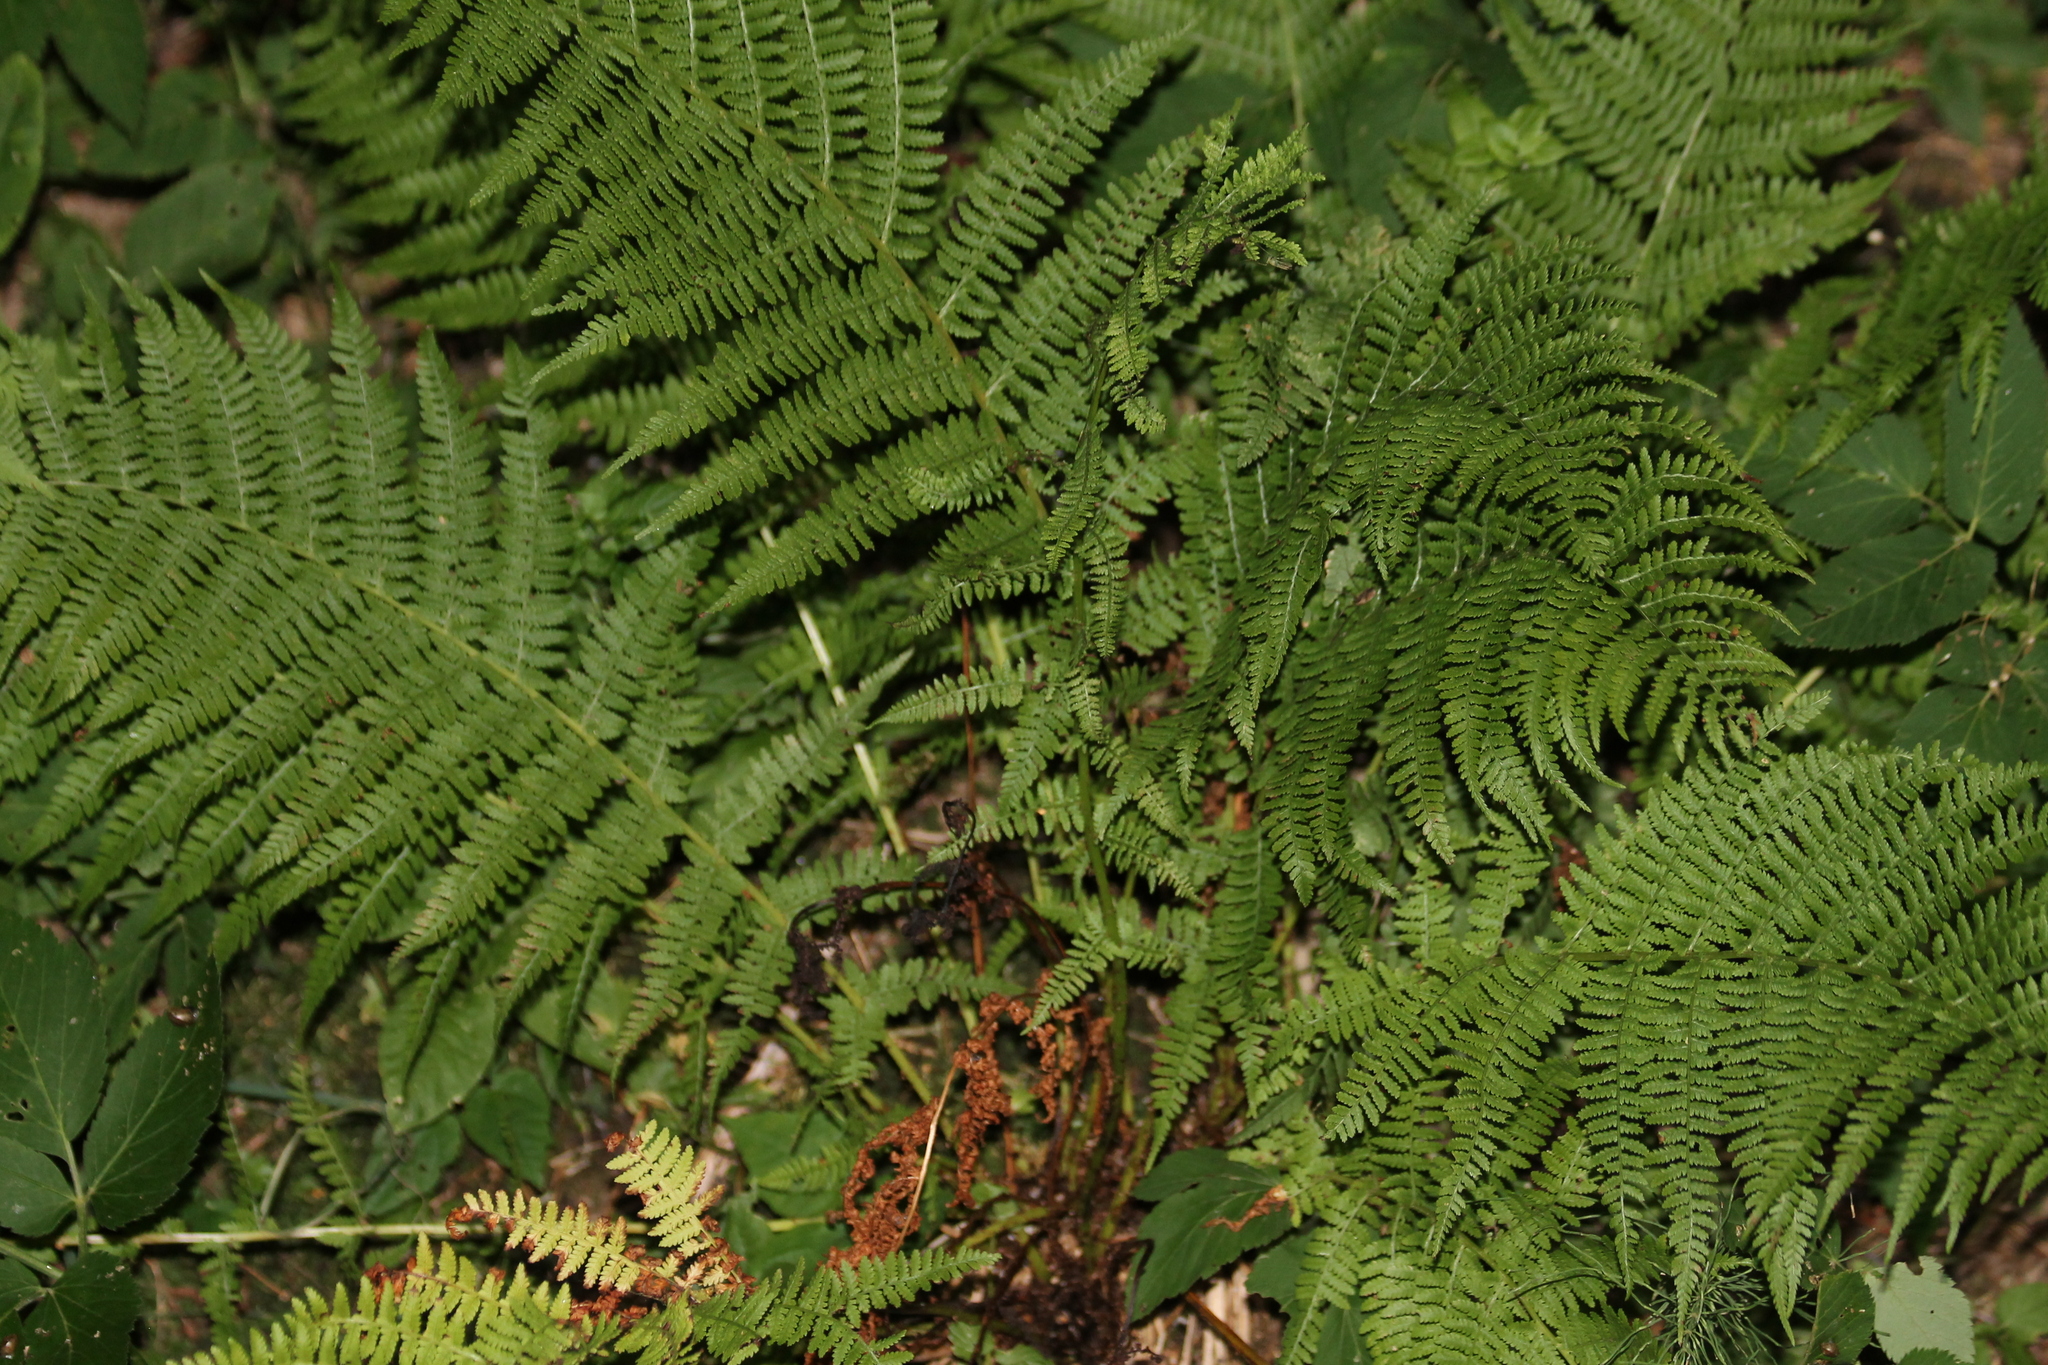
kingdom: Plantae
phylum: Tracheophyta
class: Polypodiopsida
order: Polypodiales
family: Athyriaceae
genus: Athyrium
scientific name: Athyrium filix-femina
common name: Lady fern
